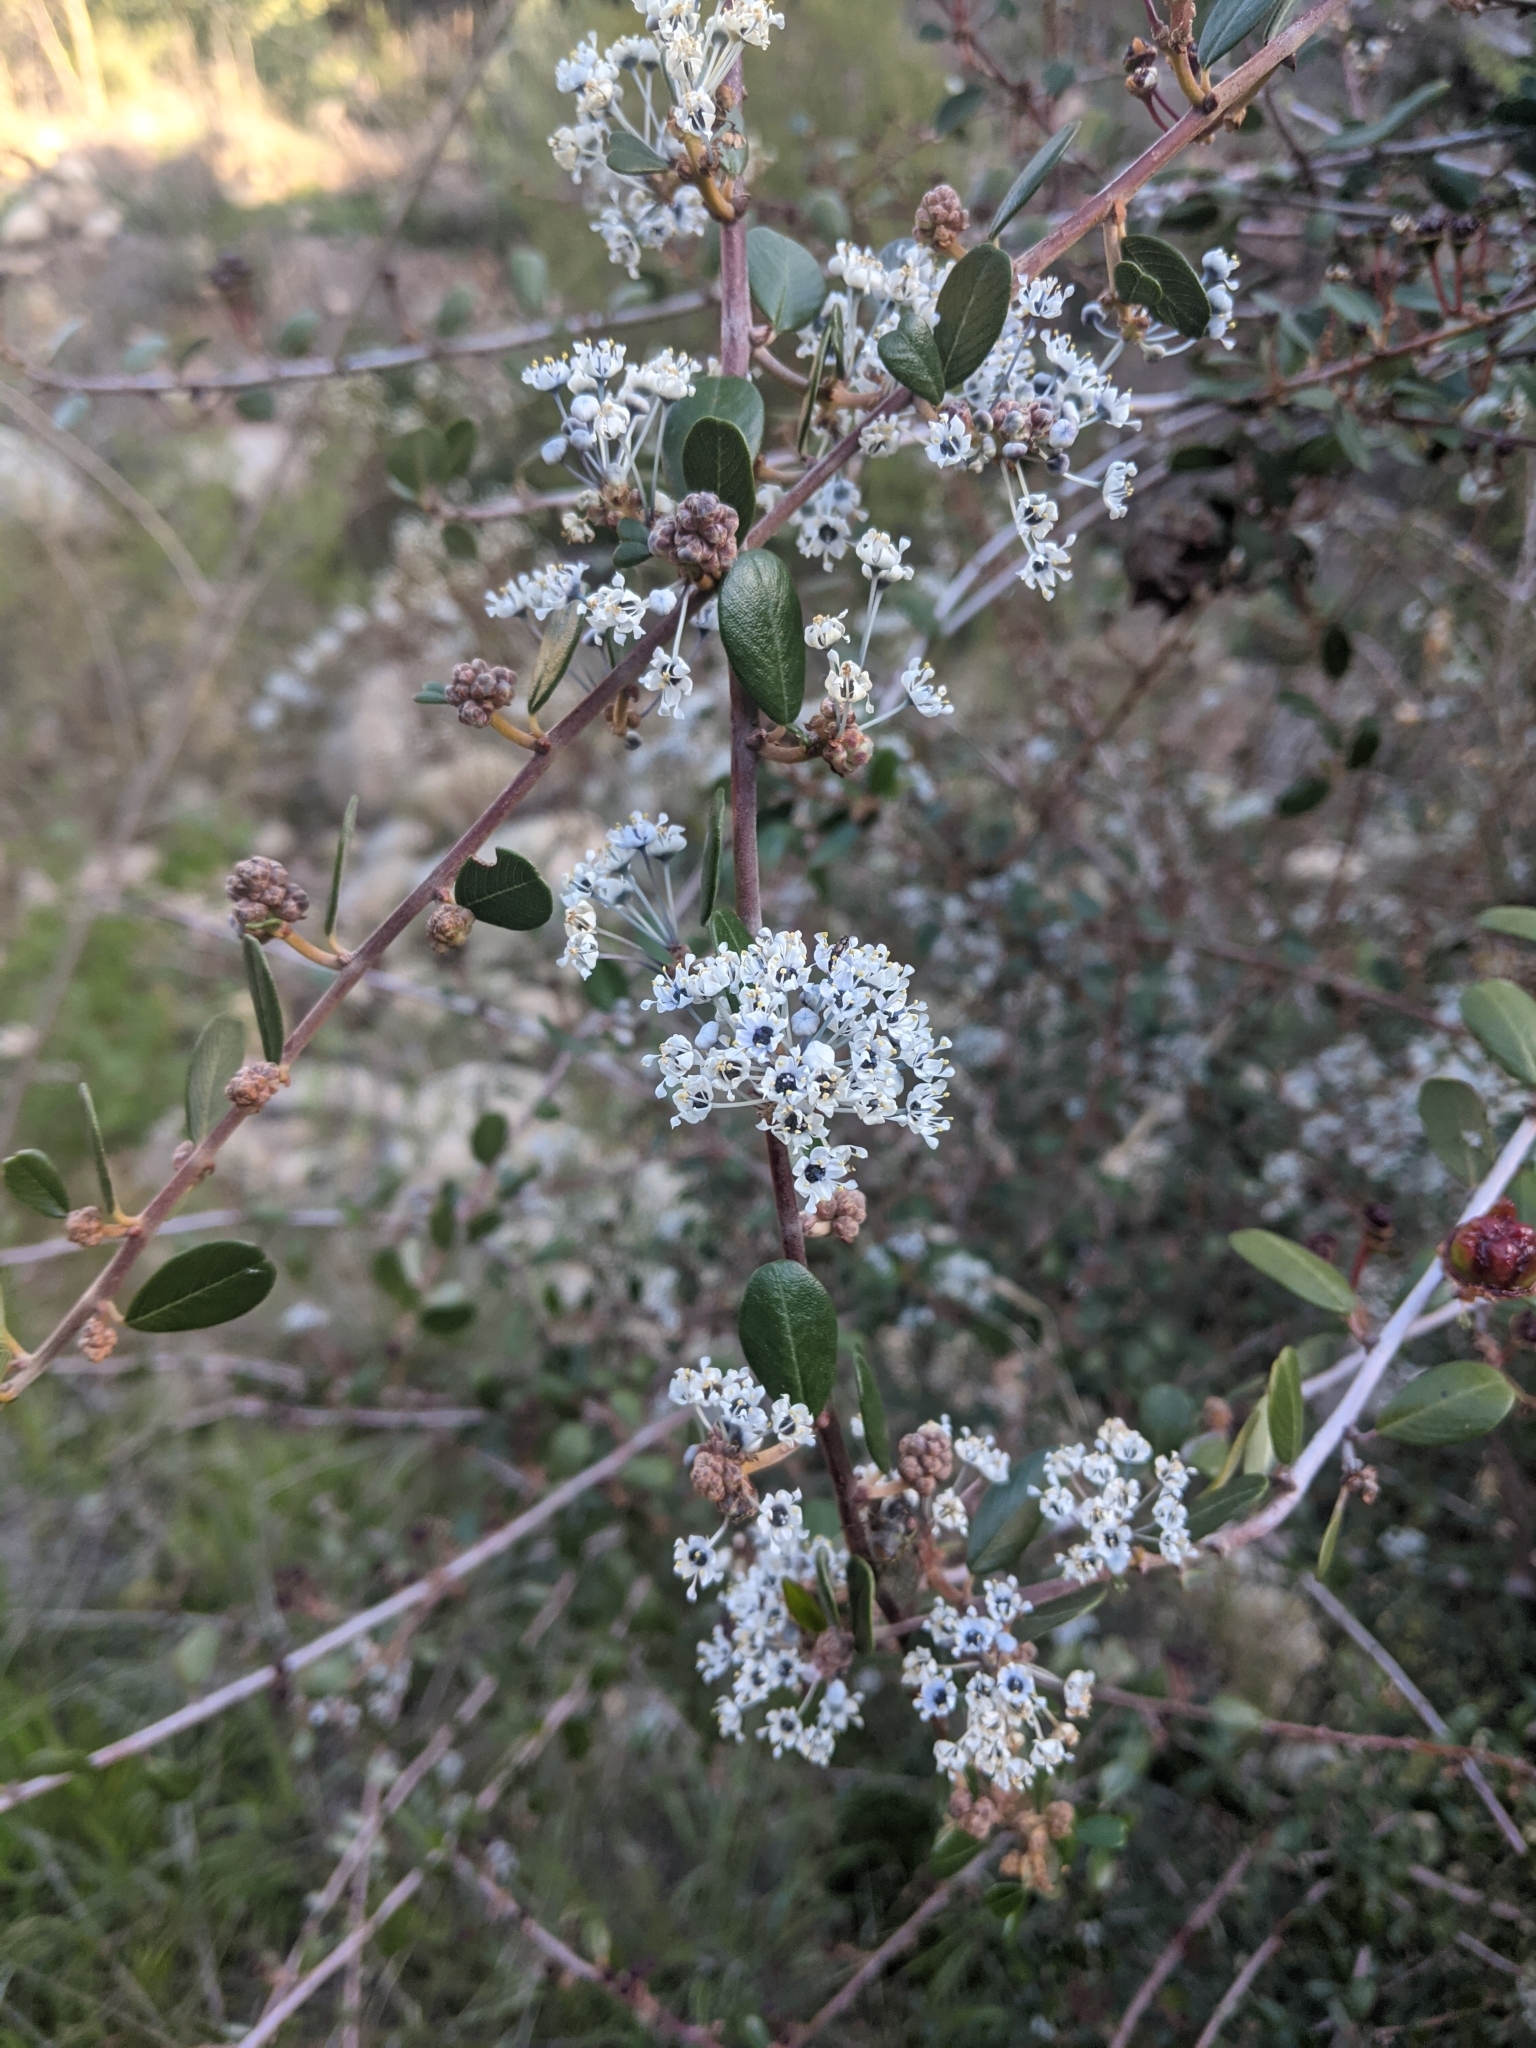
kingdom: Plantae
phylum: Tracheophyta
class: Magnoliopsida
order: Rosales
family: Rhamnaceae
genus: Ceanothus
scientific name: Ceanothus megacarpus
